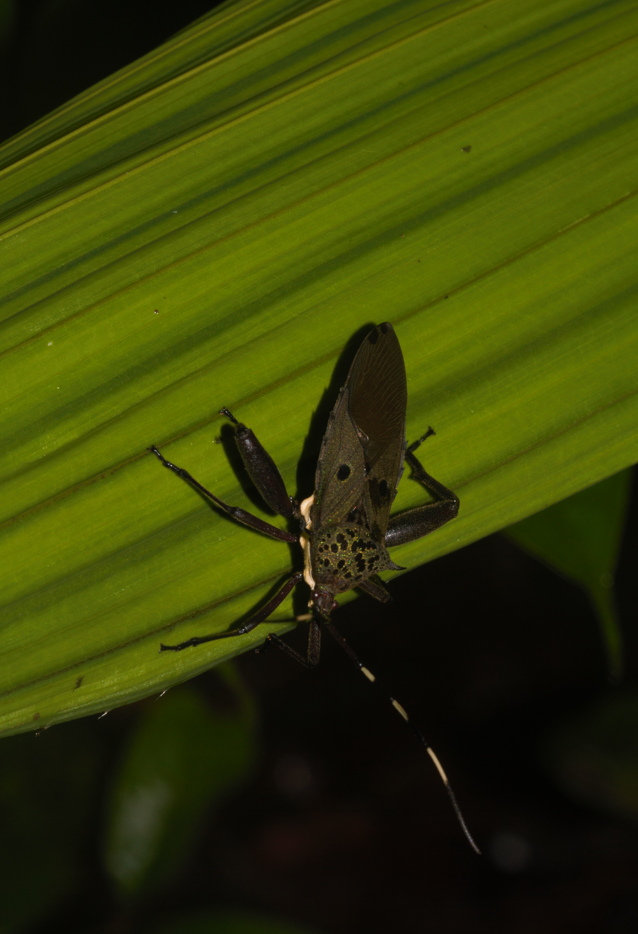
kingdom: Animalia
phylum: Arthropoda
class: Insecta
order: Hemiptera
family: Coreidae
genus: Molchina
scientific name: Molchina hopei
